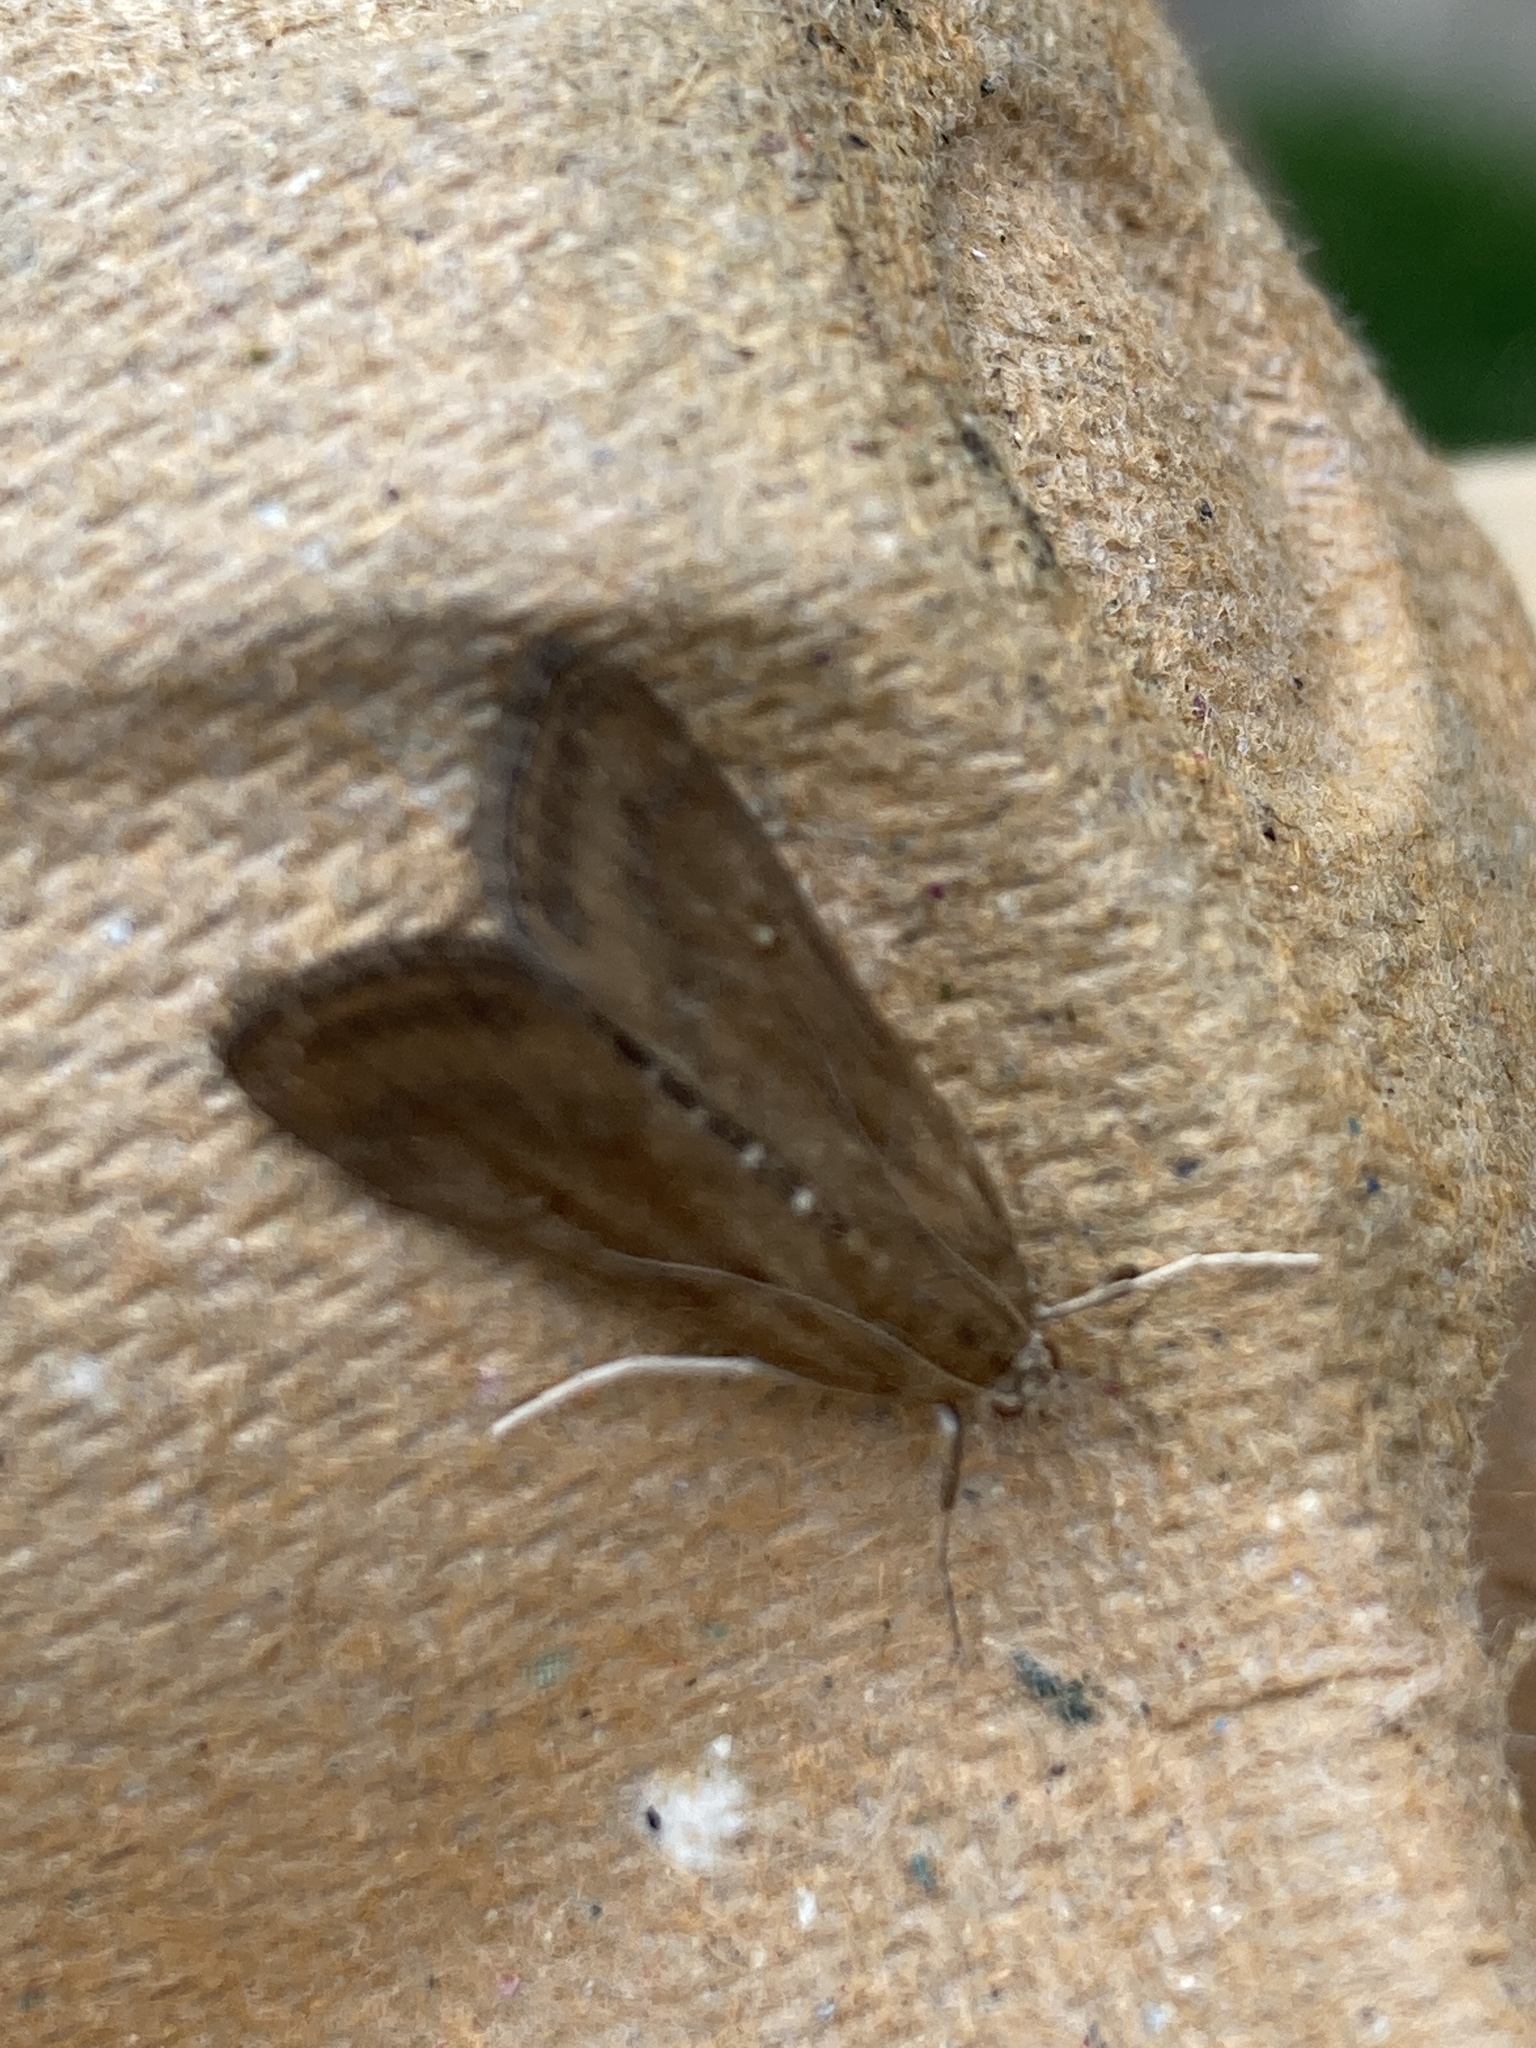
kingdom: Animalia
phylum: Arthropoda
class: Insecta
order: Lepidoptera
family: Crambidae
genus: Parapoynx
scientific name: Parapoynx stratiotata
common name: Ringed china-mark
